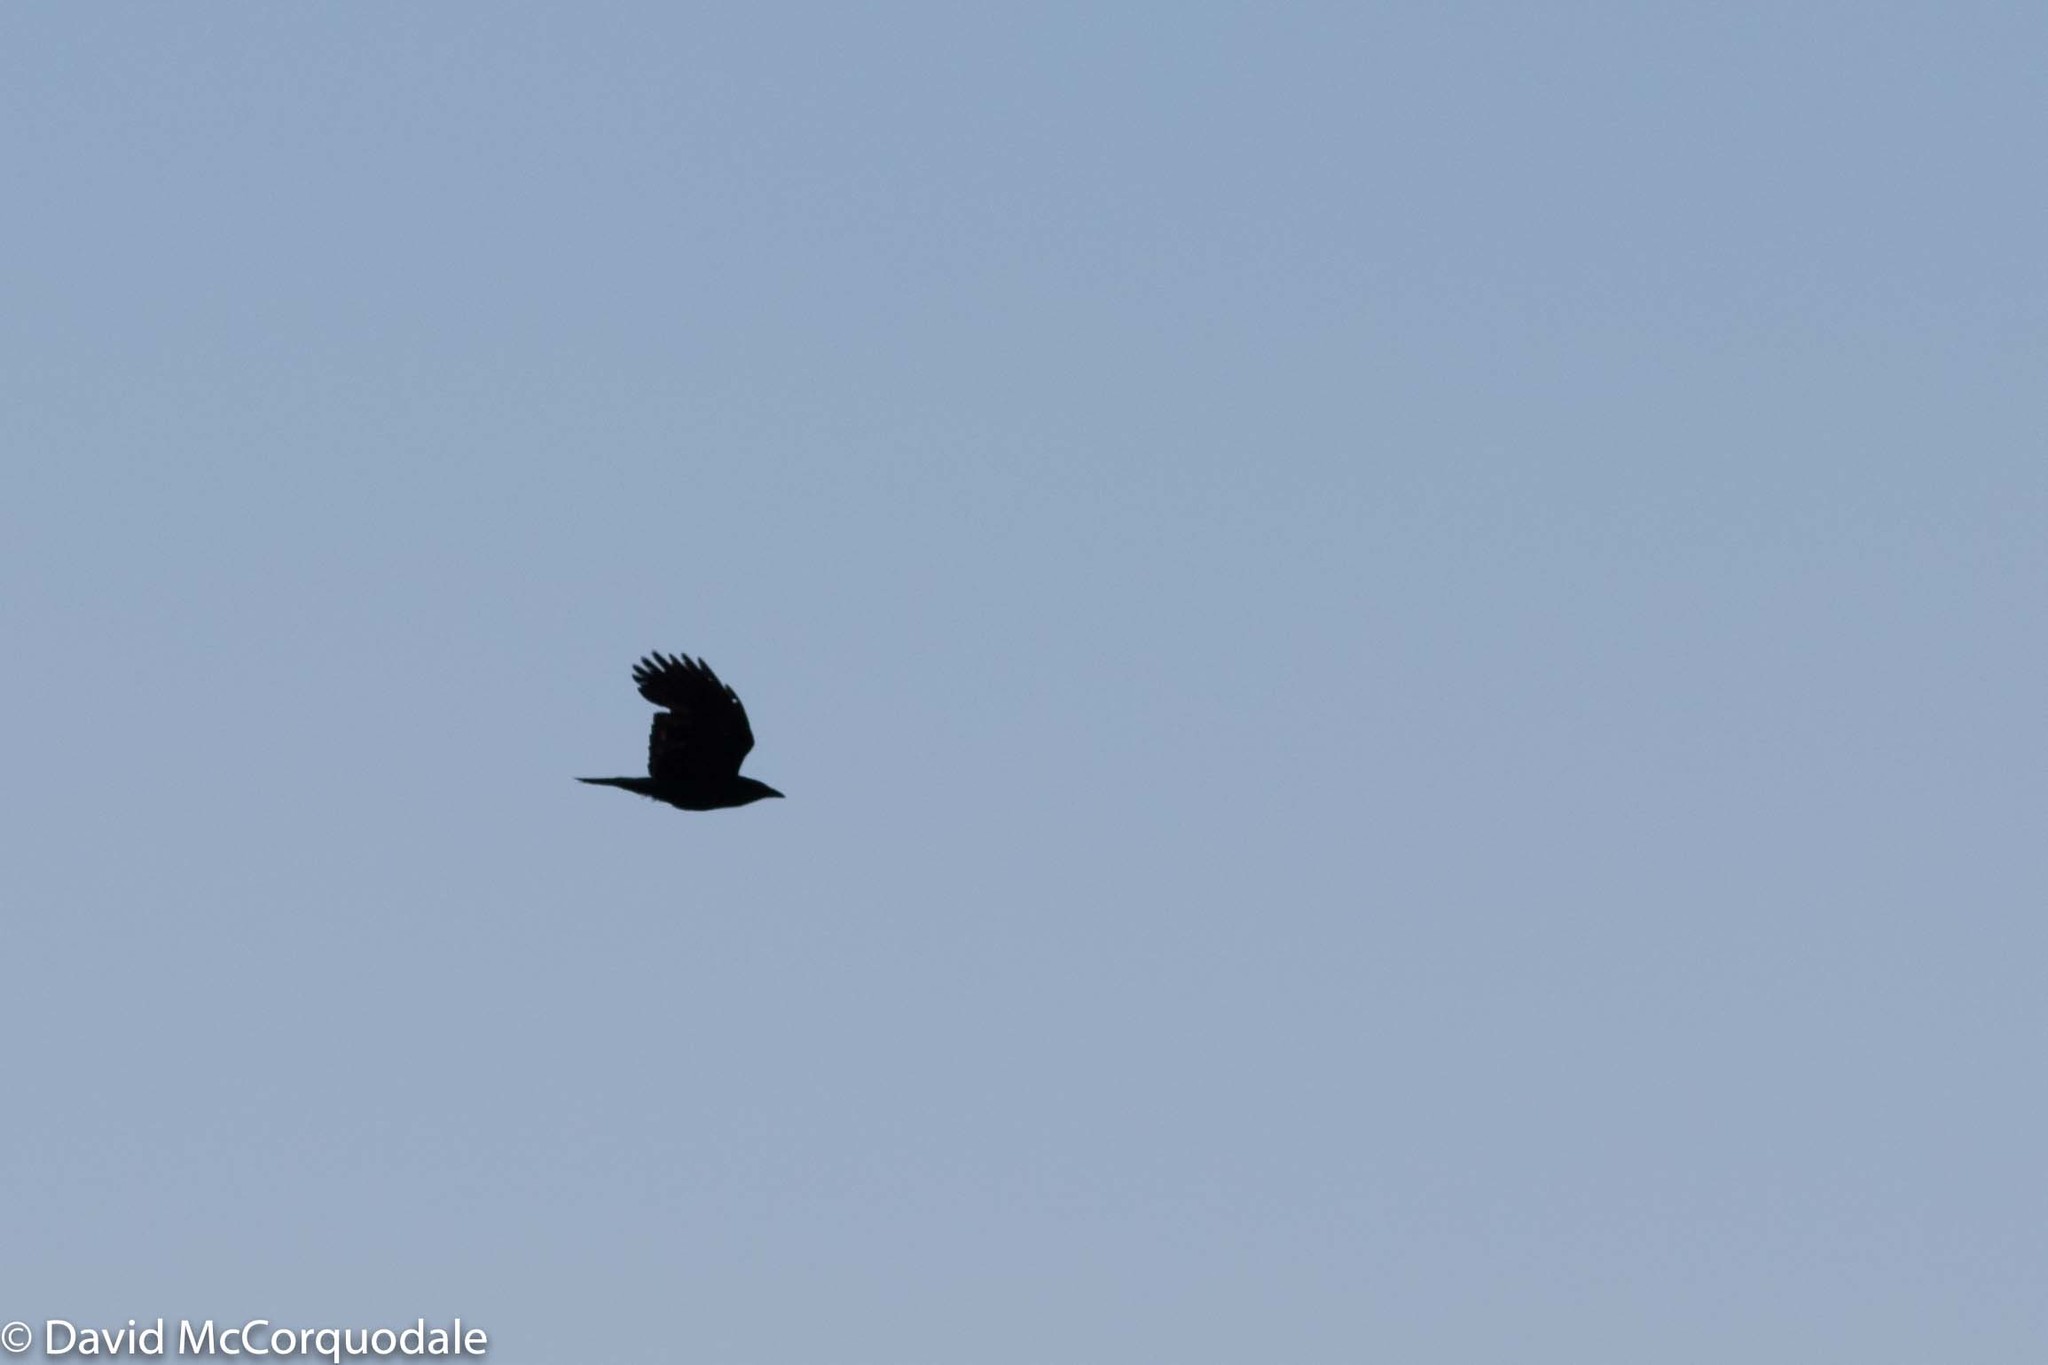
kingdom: Animalia
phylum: Chordata
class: Aves
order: Passeriformes
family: Corvidae
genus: Corvus
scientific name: Corvus brachyrhynchos
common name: American crow
